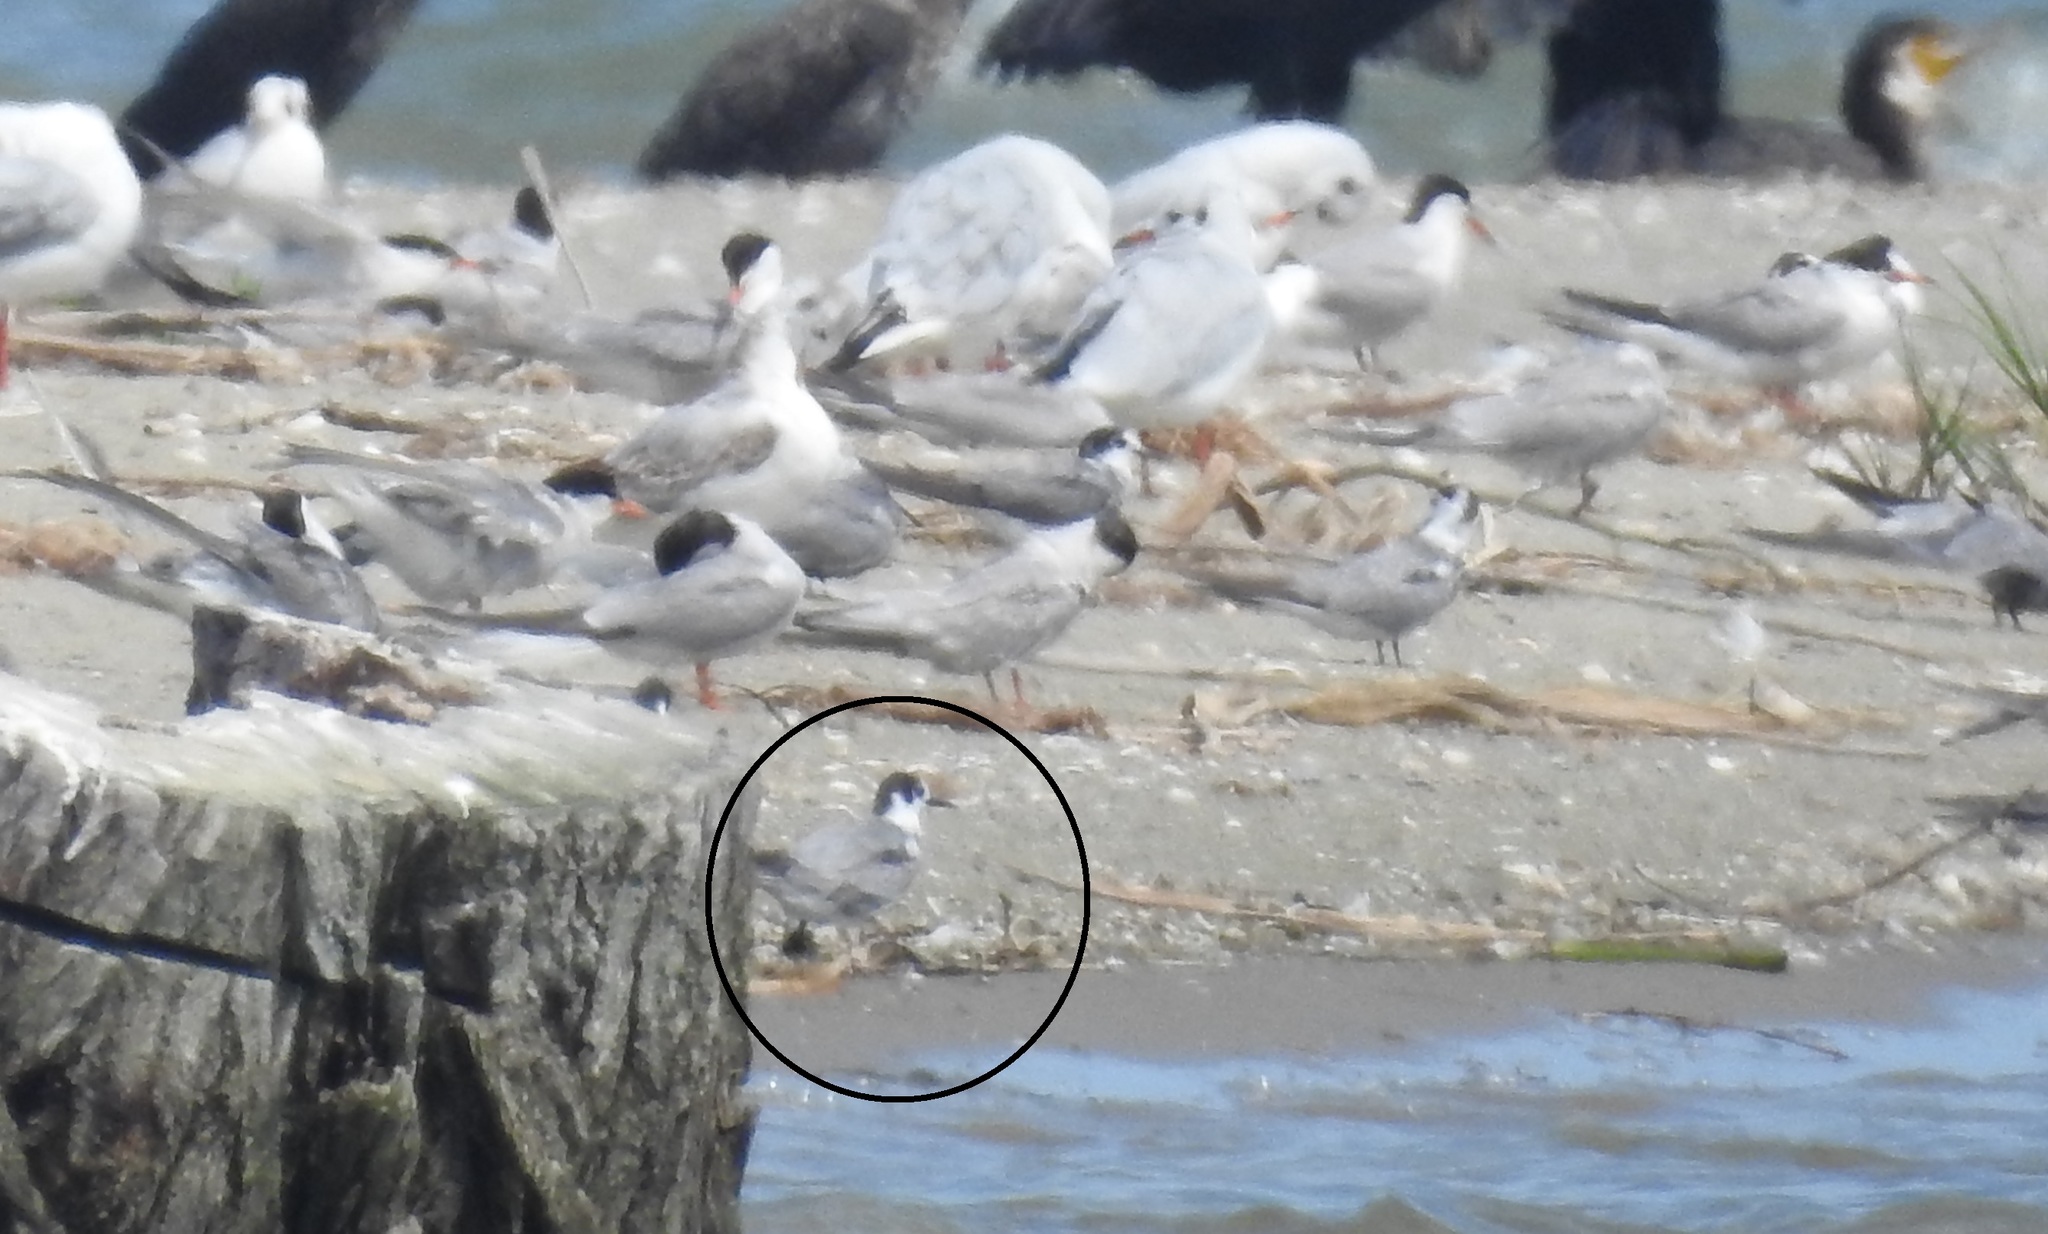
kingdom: Animalia
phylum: Chordata
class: Aves
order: Charadriiformes
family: Laridae
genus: Chlidonias
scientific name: Chlidonias niger
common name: Black tern
